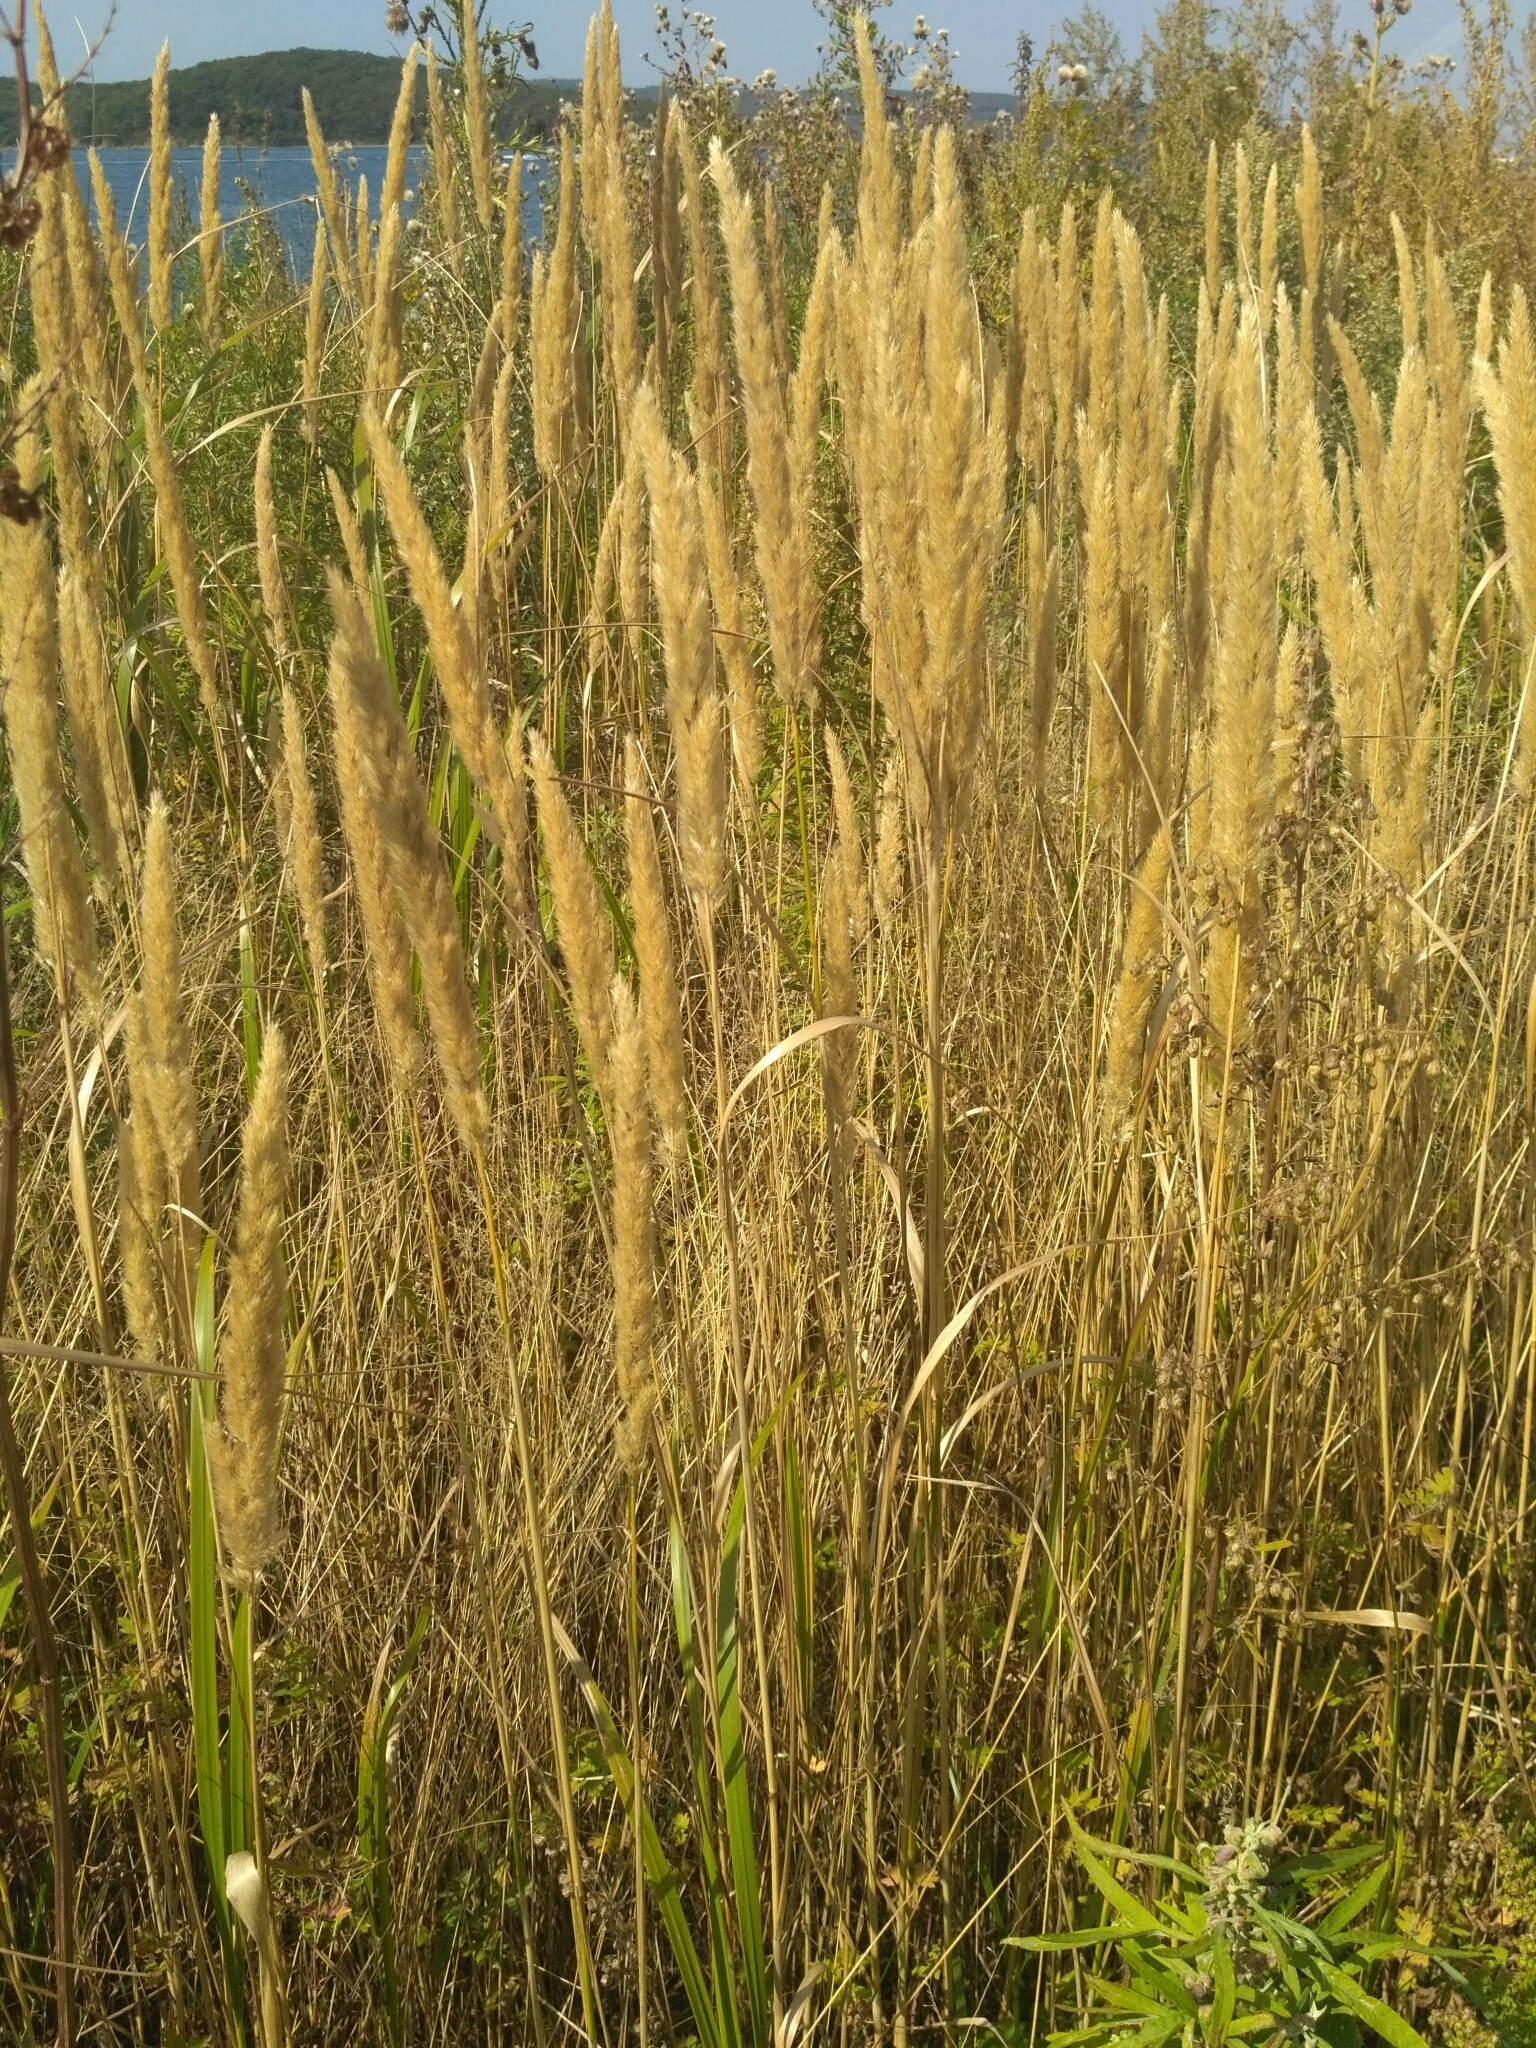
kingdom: Plantae
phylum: Tracheophyta
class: Liliopsida
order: Poales
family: Poaceae
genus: Calamagrostis
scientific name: Calamagrostis extremiorientalis
